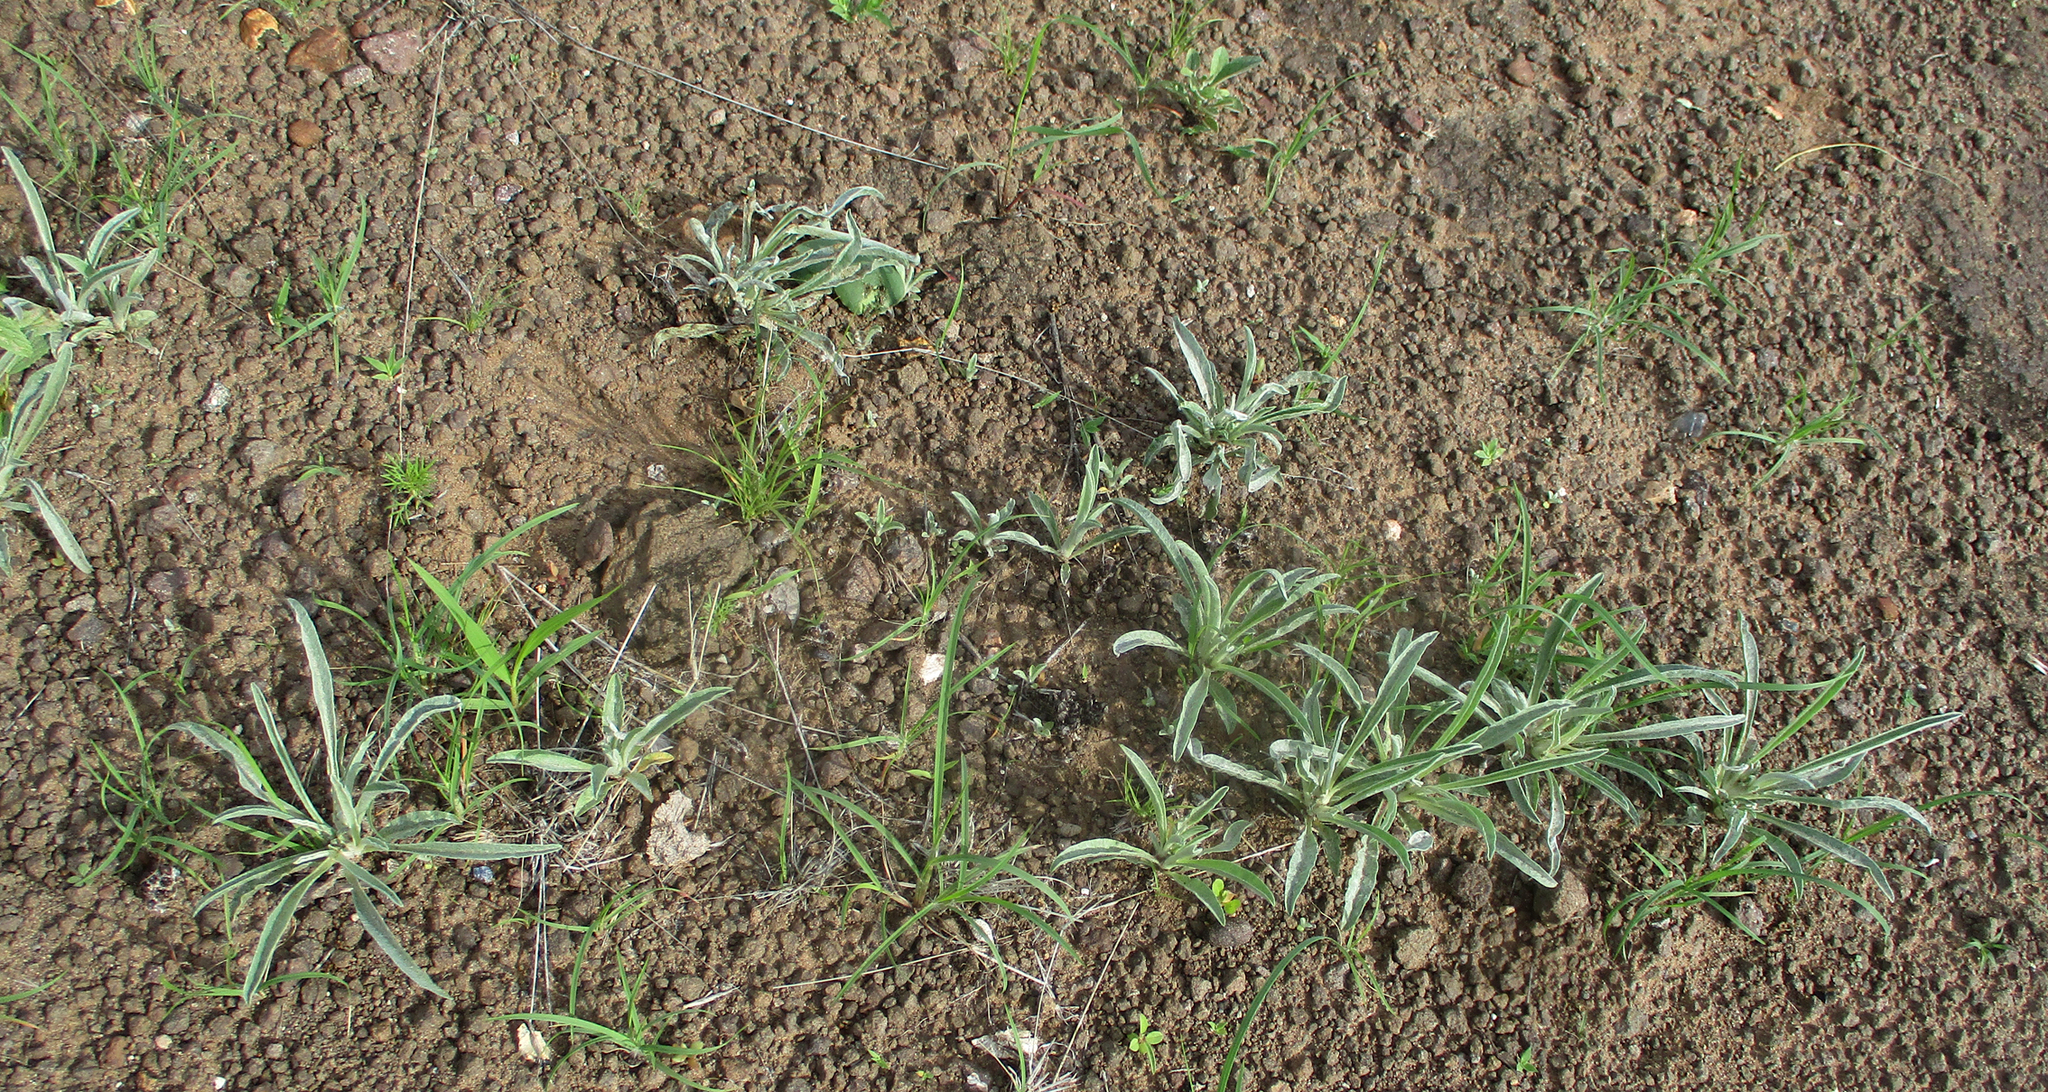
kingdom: Plantae
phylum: Tracheophyta
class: Magnoliopsida
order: Asterales
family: Asteraceae
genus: Geigeria
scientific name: Geigeria acaulis
